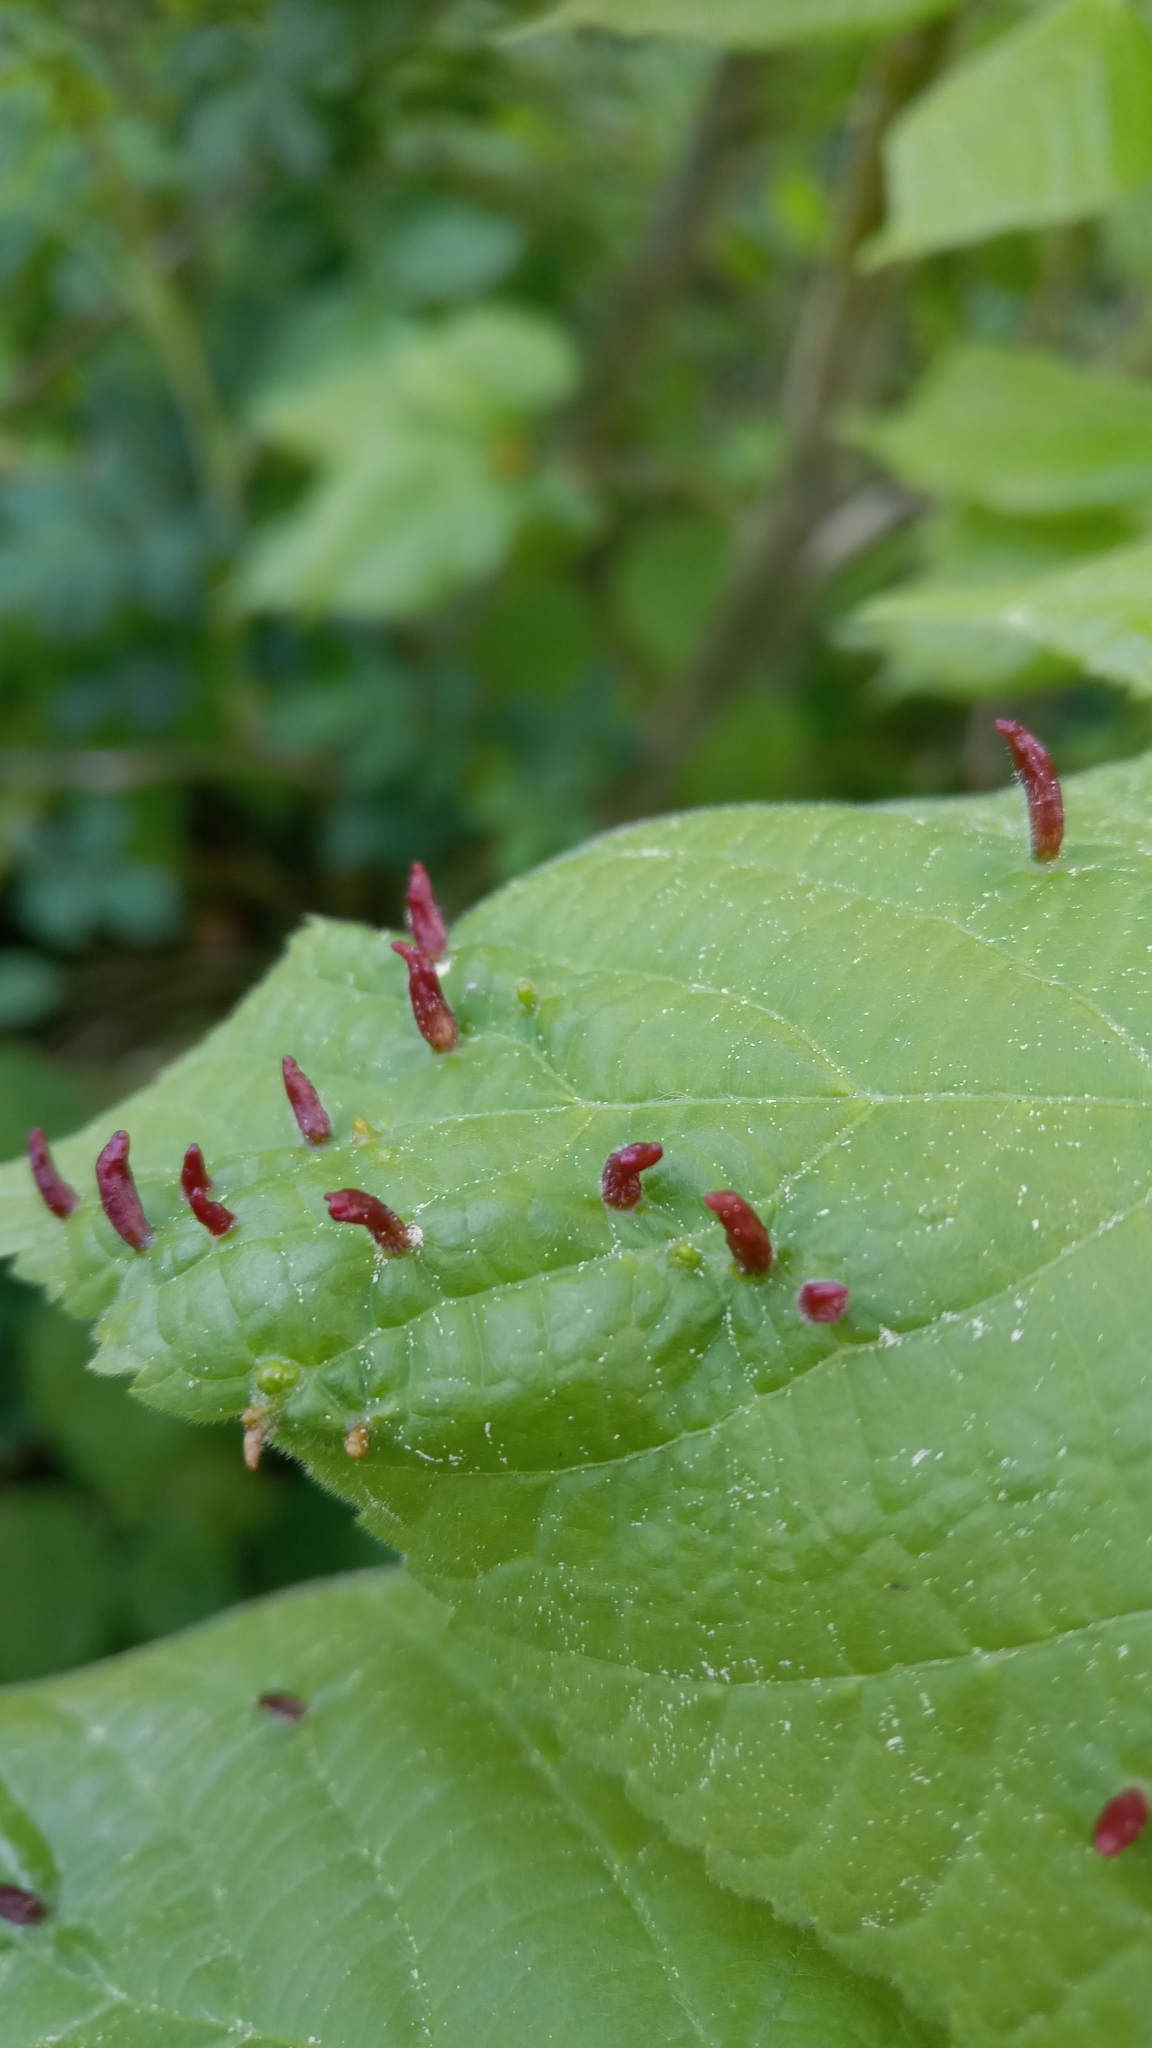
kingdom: Animalia
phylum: Arthropoda
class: Arachnida
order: Trombidiformes
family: Eriophyidae
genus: Eriophyes
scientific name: Eriophyes tiliae
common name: Red nail gall mite
